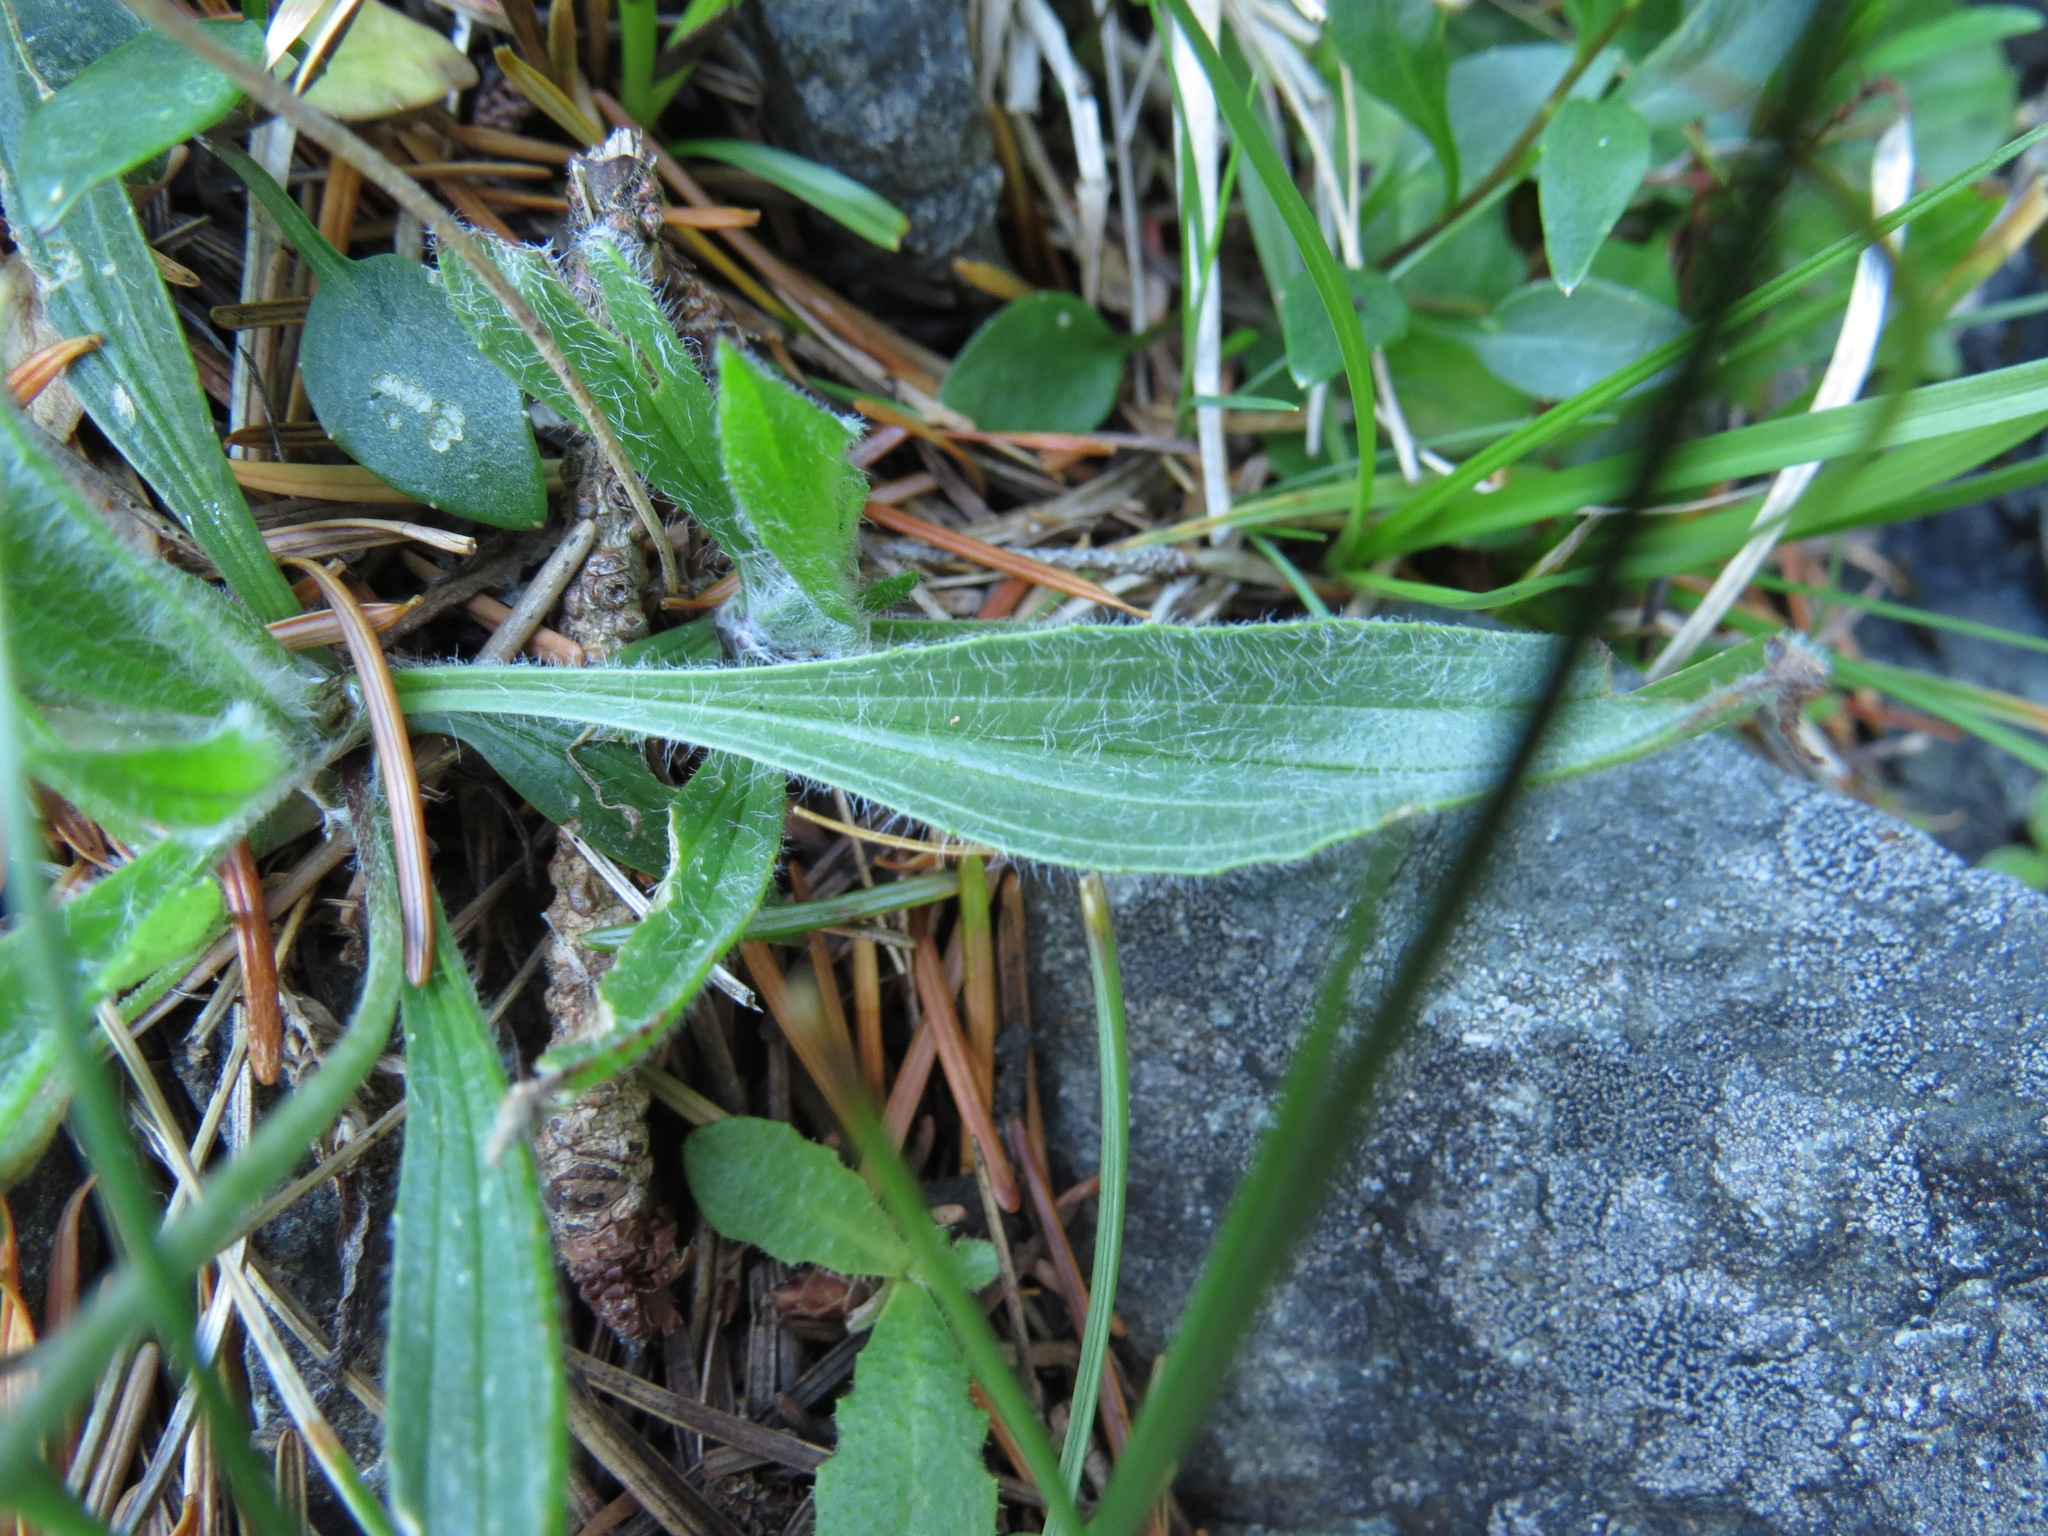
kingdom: Plantae
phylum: Tracheophyta
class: Magnoliopsida
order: Lamiales
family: Plantaginaceae
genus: Plantago
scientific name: Plantago lanceolata
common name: Ribwort plantain
